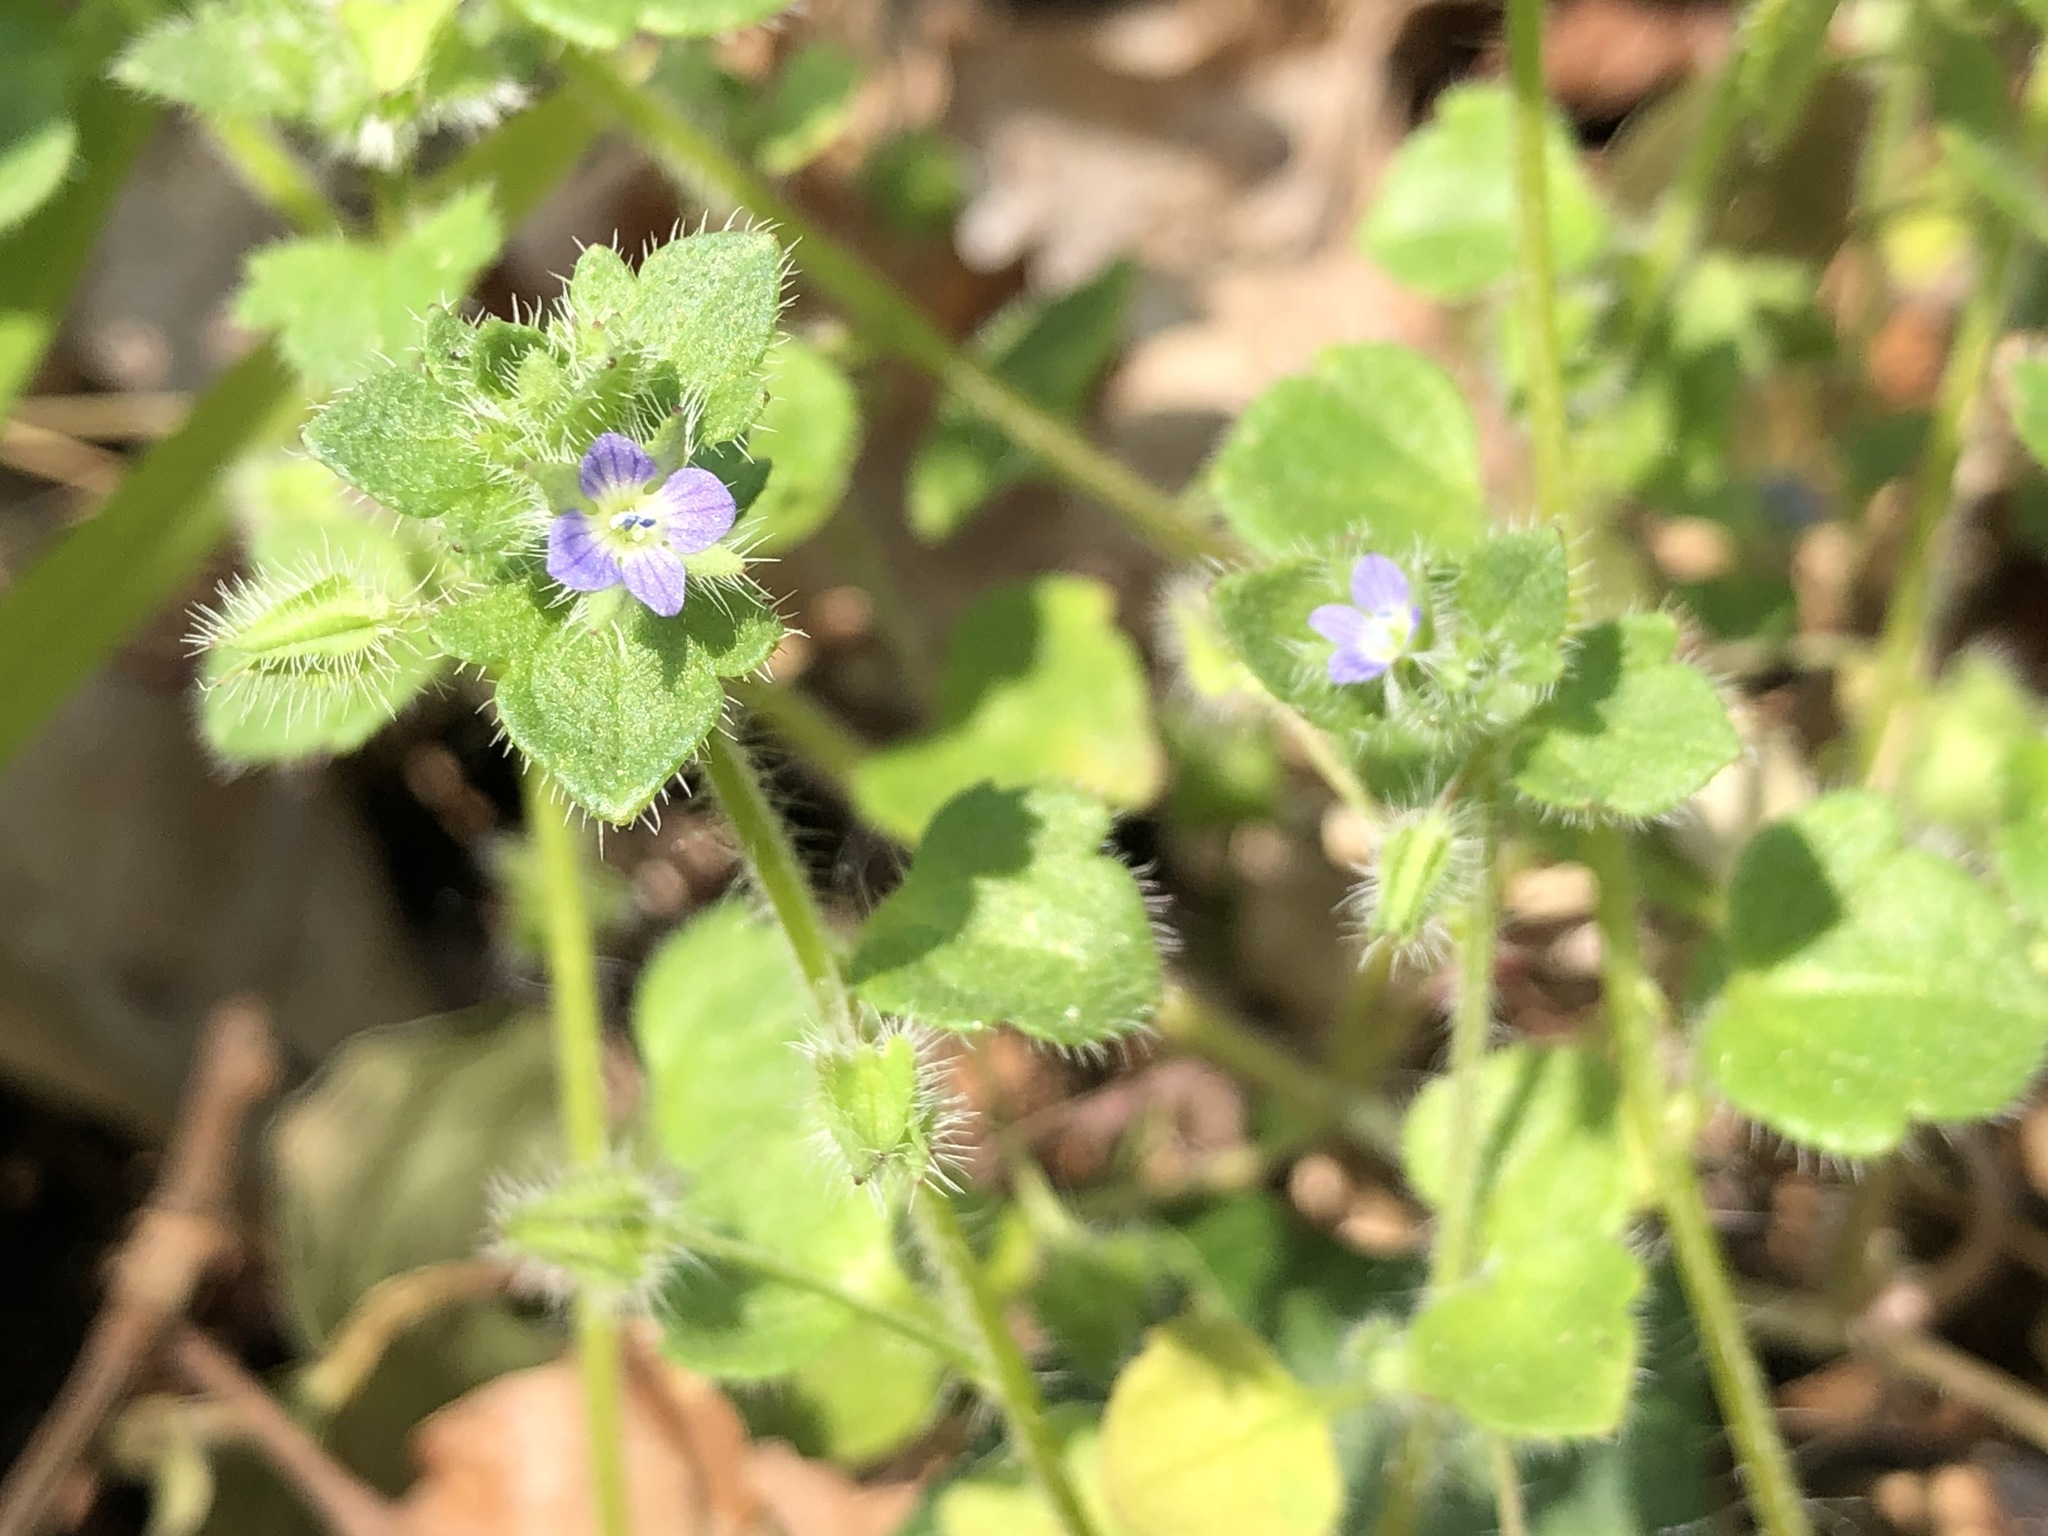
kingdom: Plantae
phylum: Tracheophyta
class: Magnoliopsida
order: Lamiales
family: Plantaginaceae
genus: Veronica
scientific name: Veronica hederifolia
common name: Ivy-leaved speedwell
